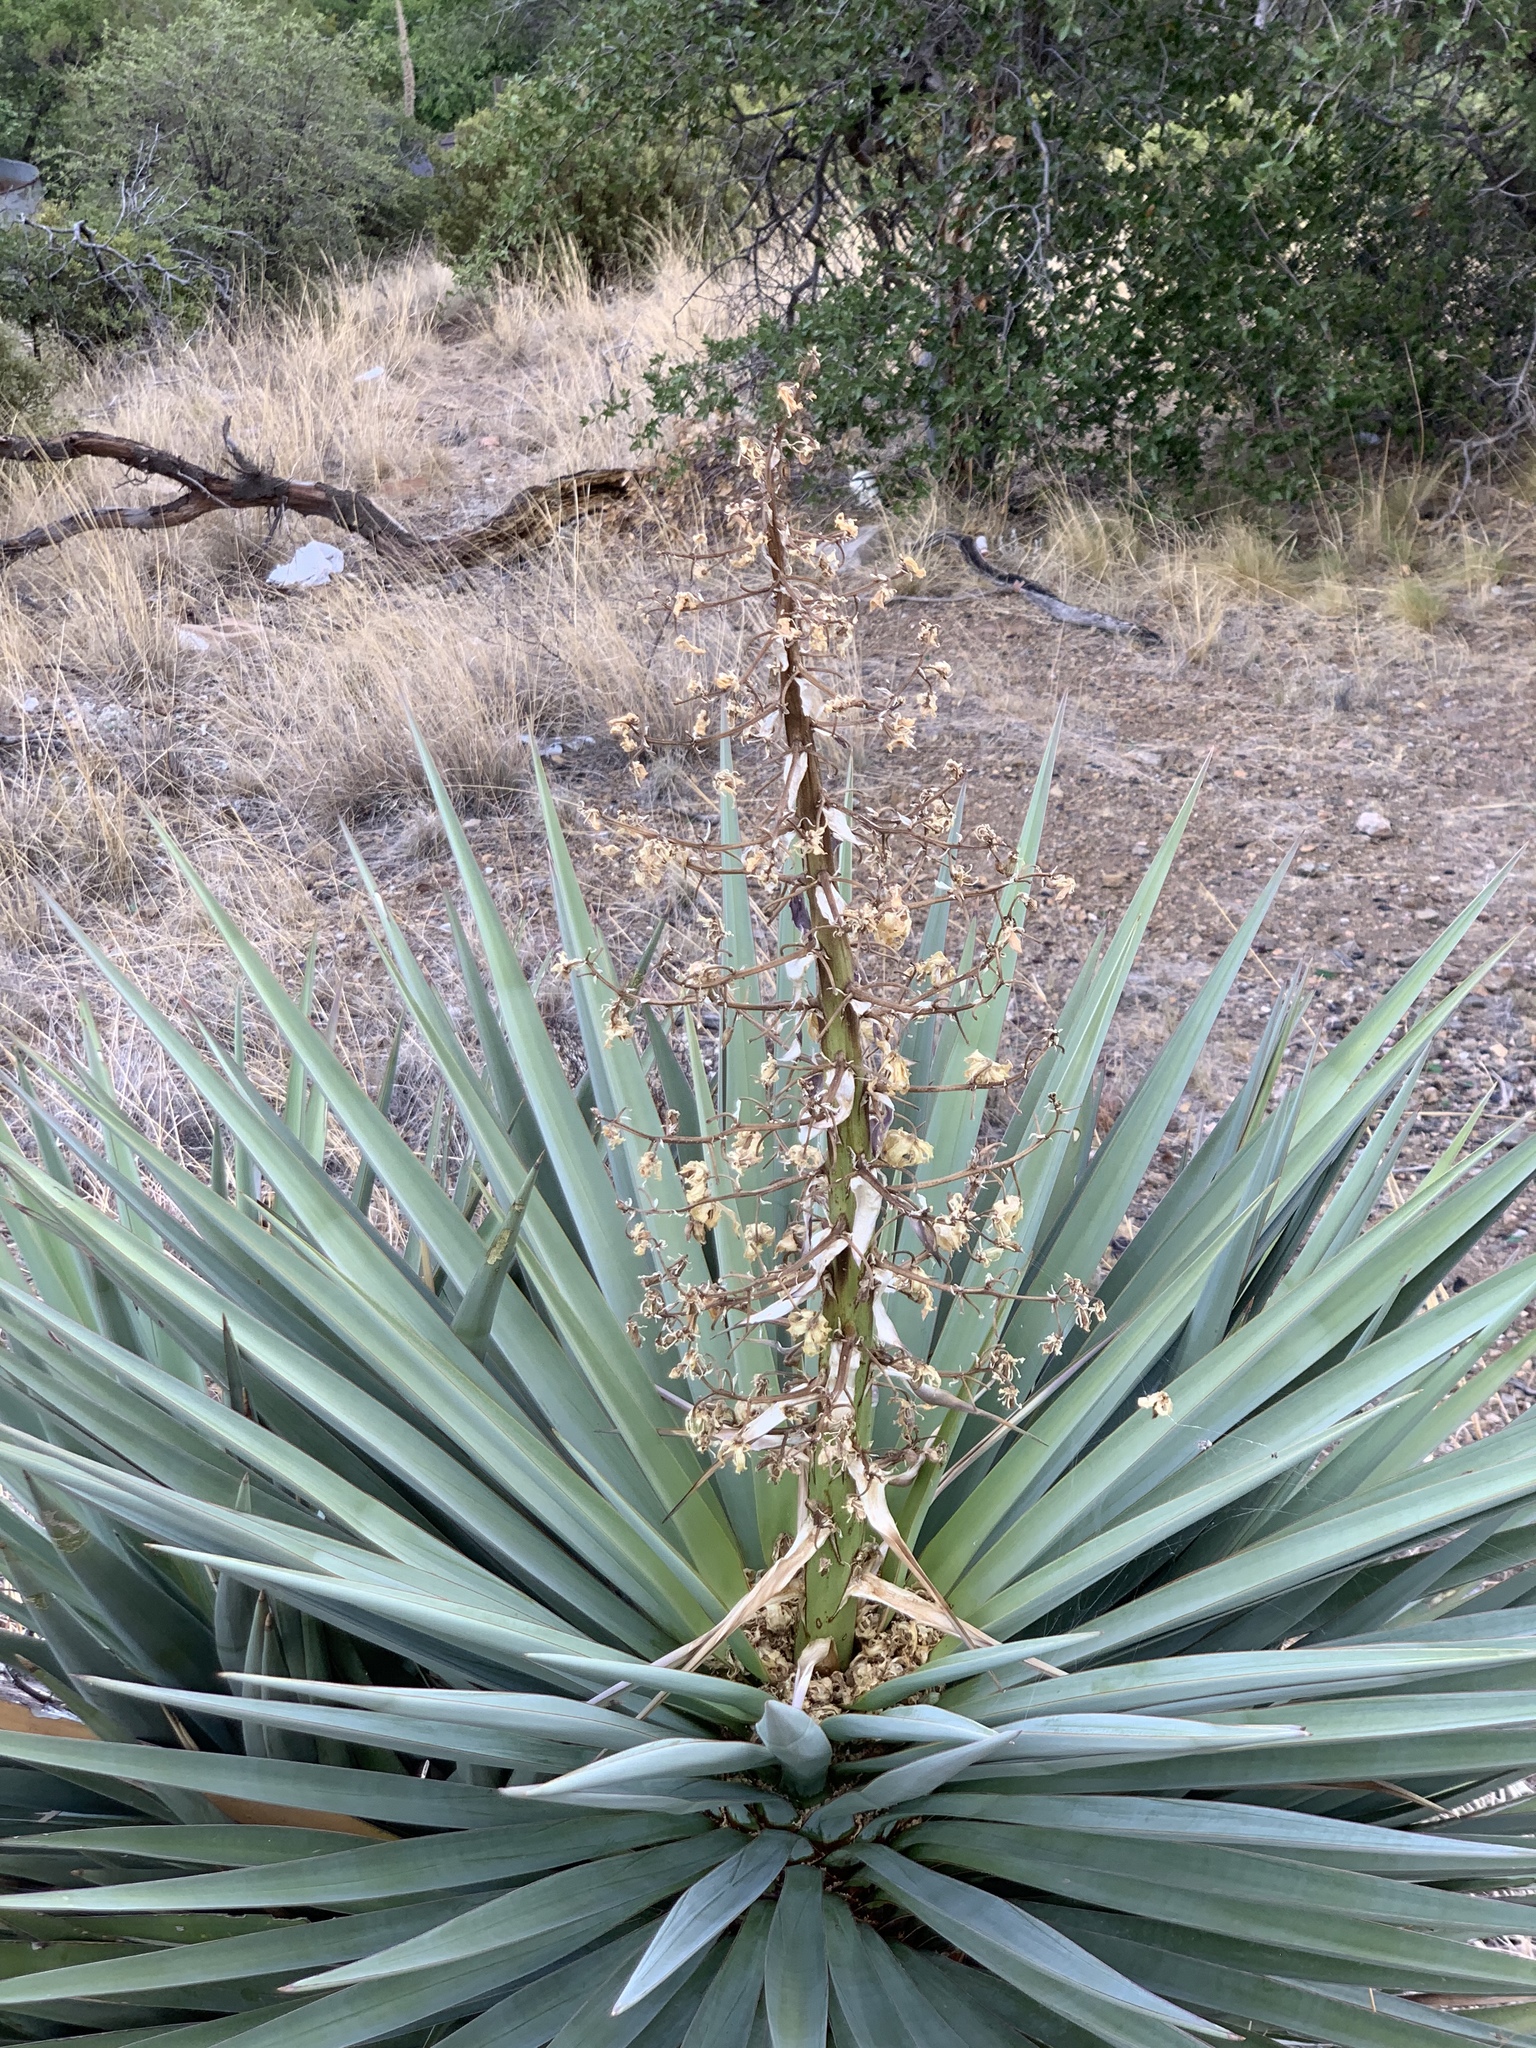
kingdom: Plantae
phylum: Tracheophyta
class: Liliopsida
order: Asparagales
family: Asparagaceae
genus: Yucca
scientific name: Yucca madrensis
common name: Hoary yucca
